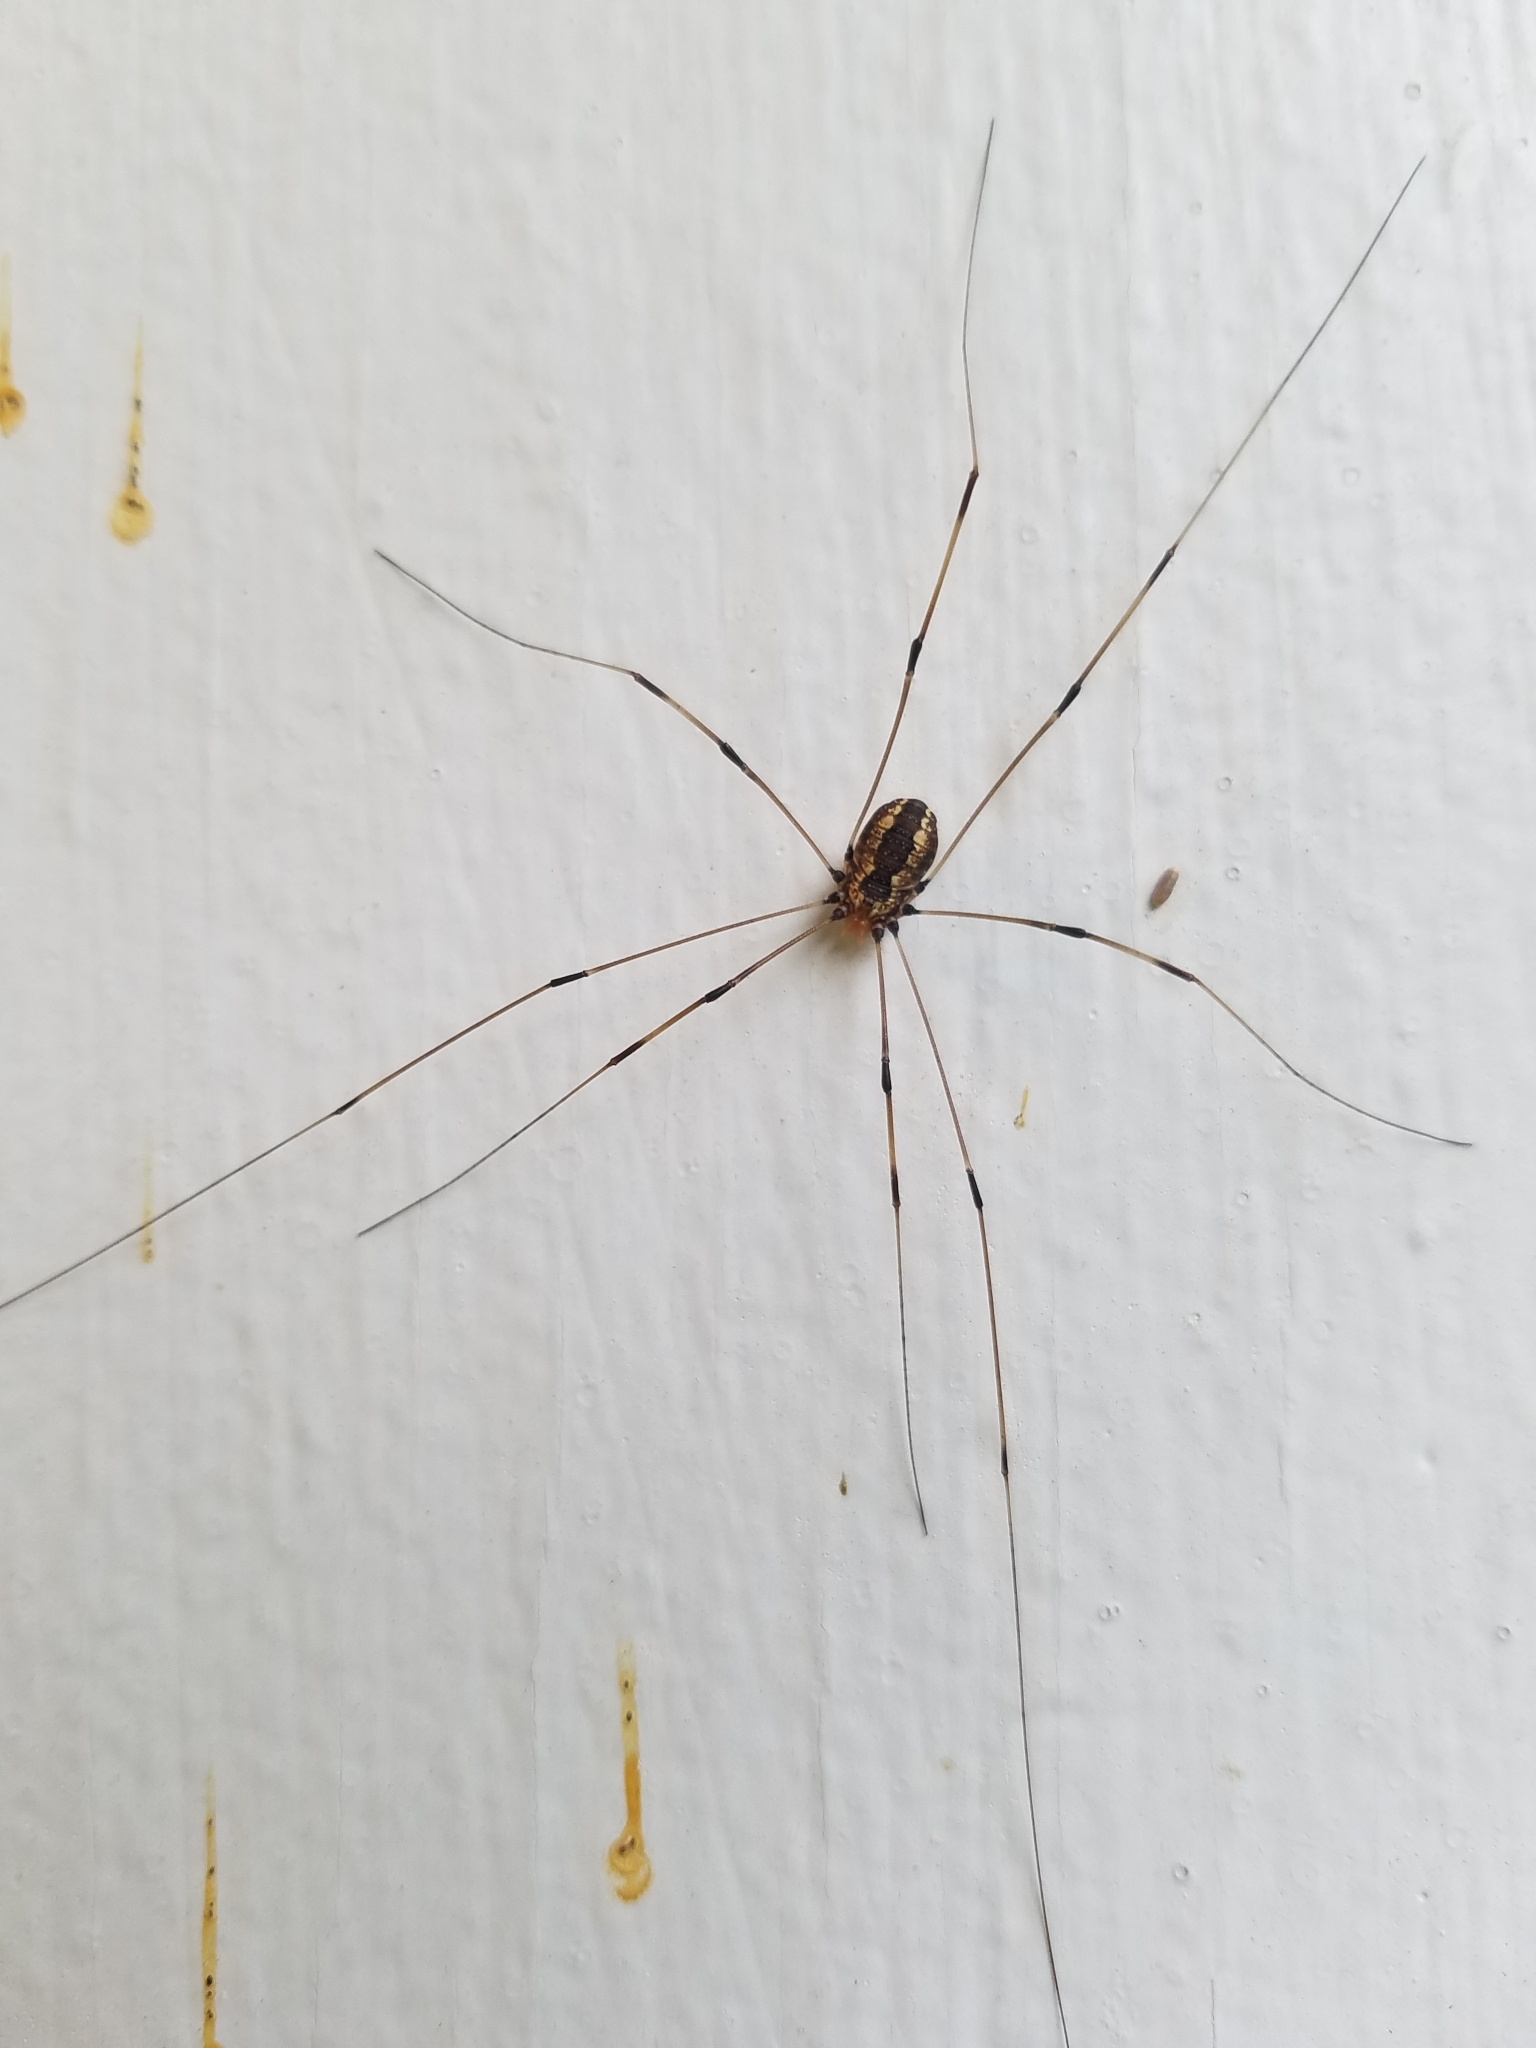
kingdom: Animalia
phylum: Arthropoda
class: Arachnida
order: Opiliones
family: Sclerosomatidae
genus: Leiobunum
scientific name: Leiobunum vittatum
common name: Eastern harvestman
